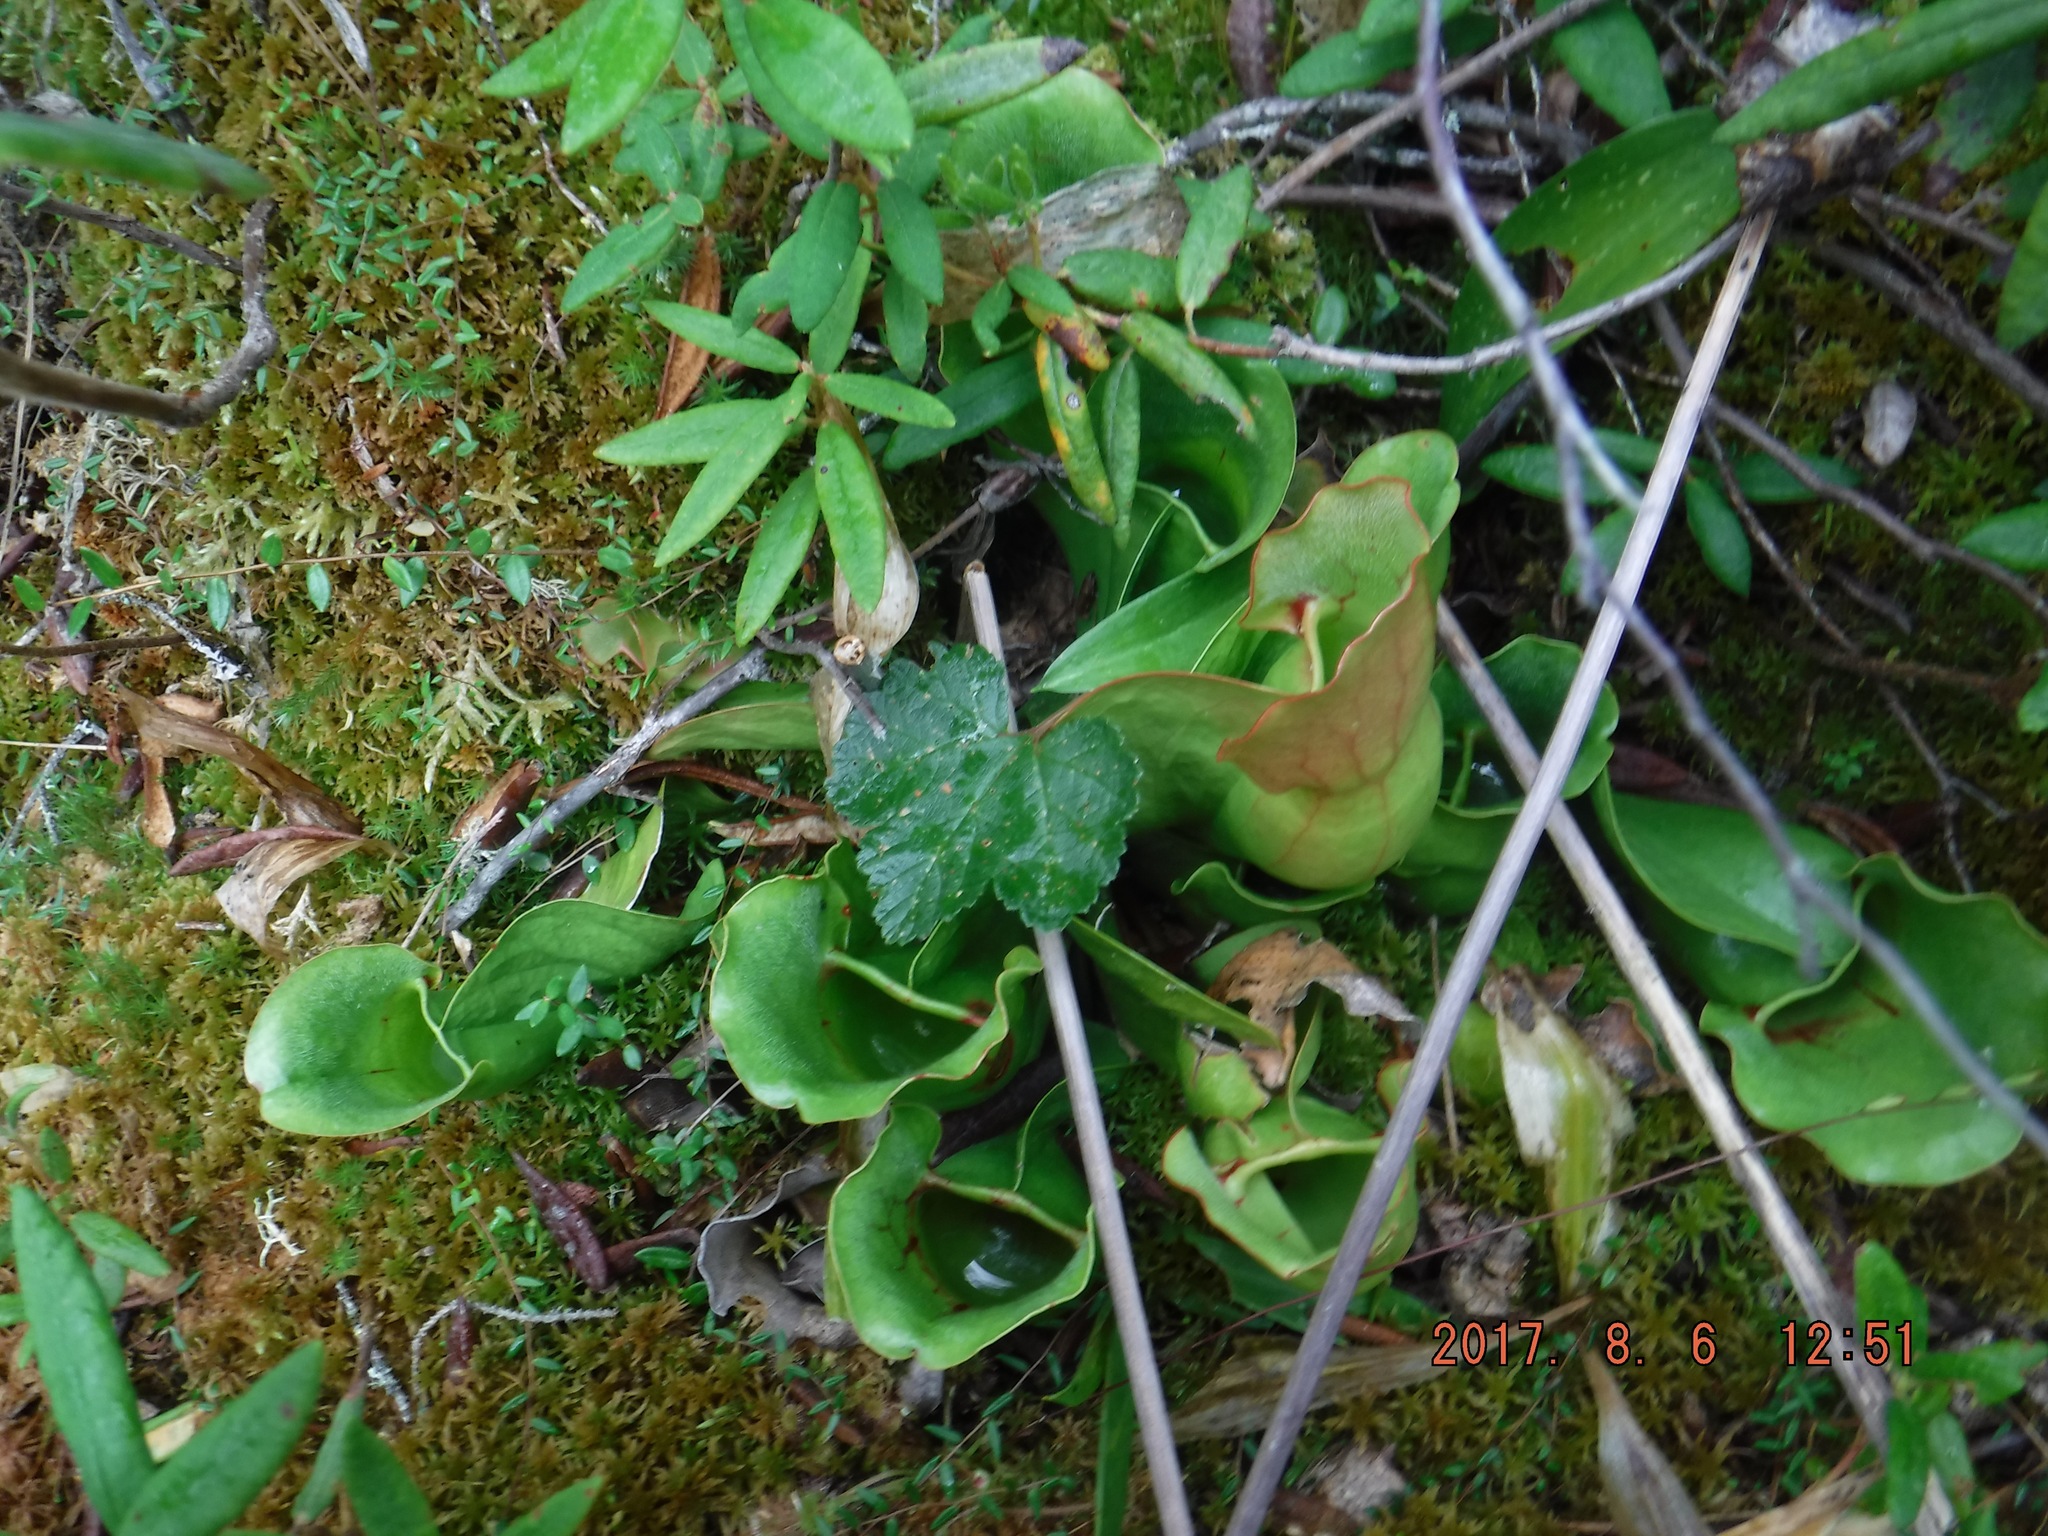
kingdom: Plantae
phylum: Tracheophyta
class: Magnoliopsida
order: Ericales
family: Sarraceniaceae
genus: Sarracenia
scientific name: Sarracenia purpurea
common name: Pitcherplant
